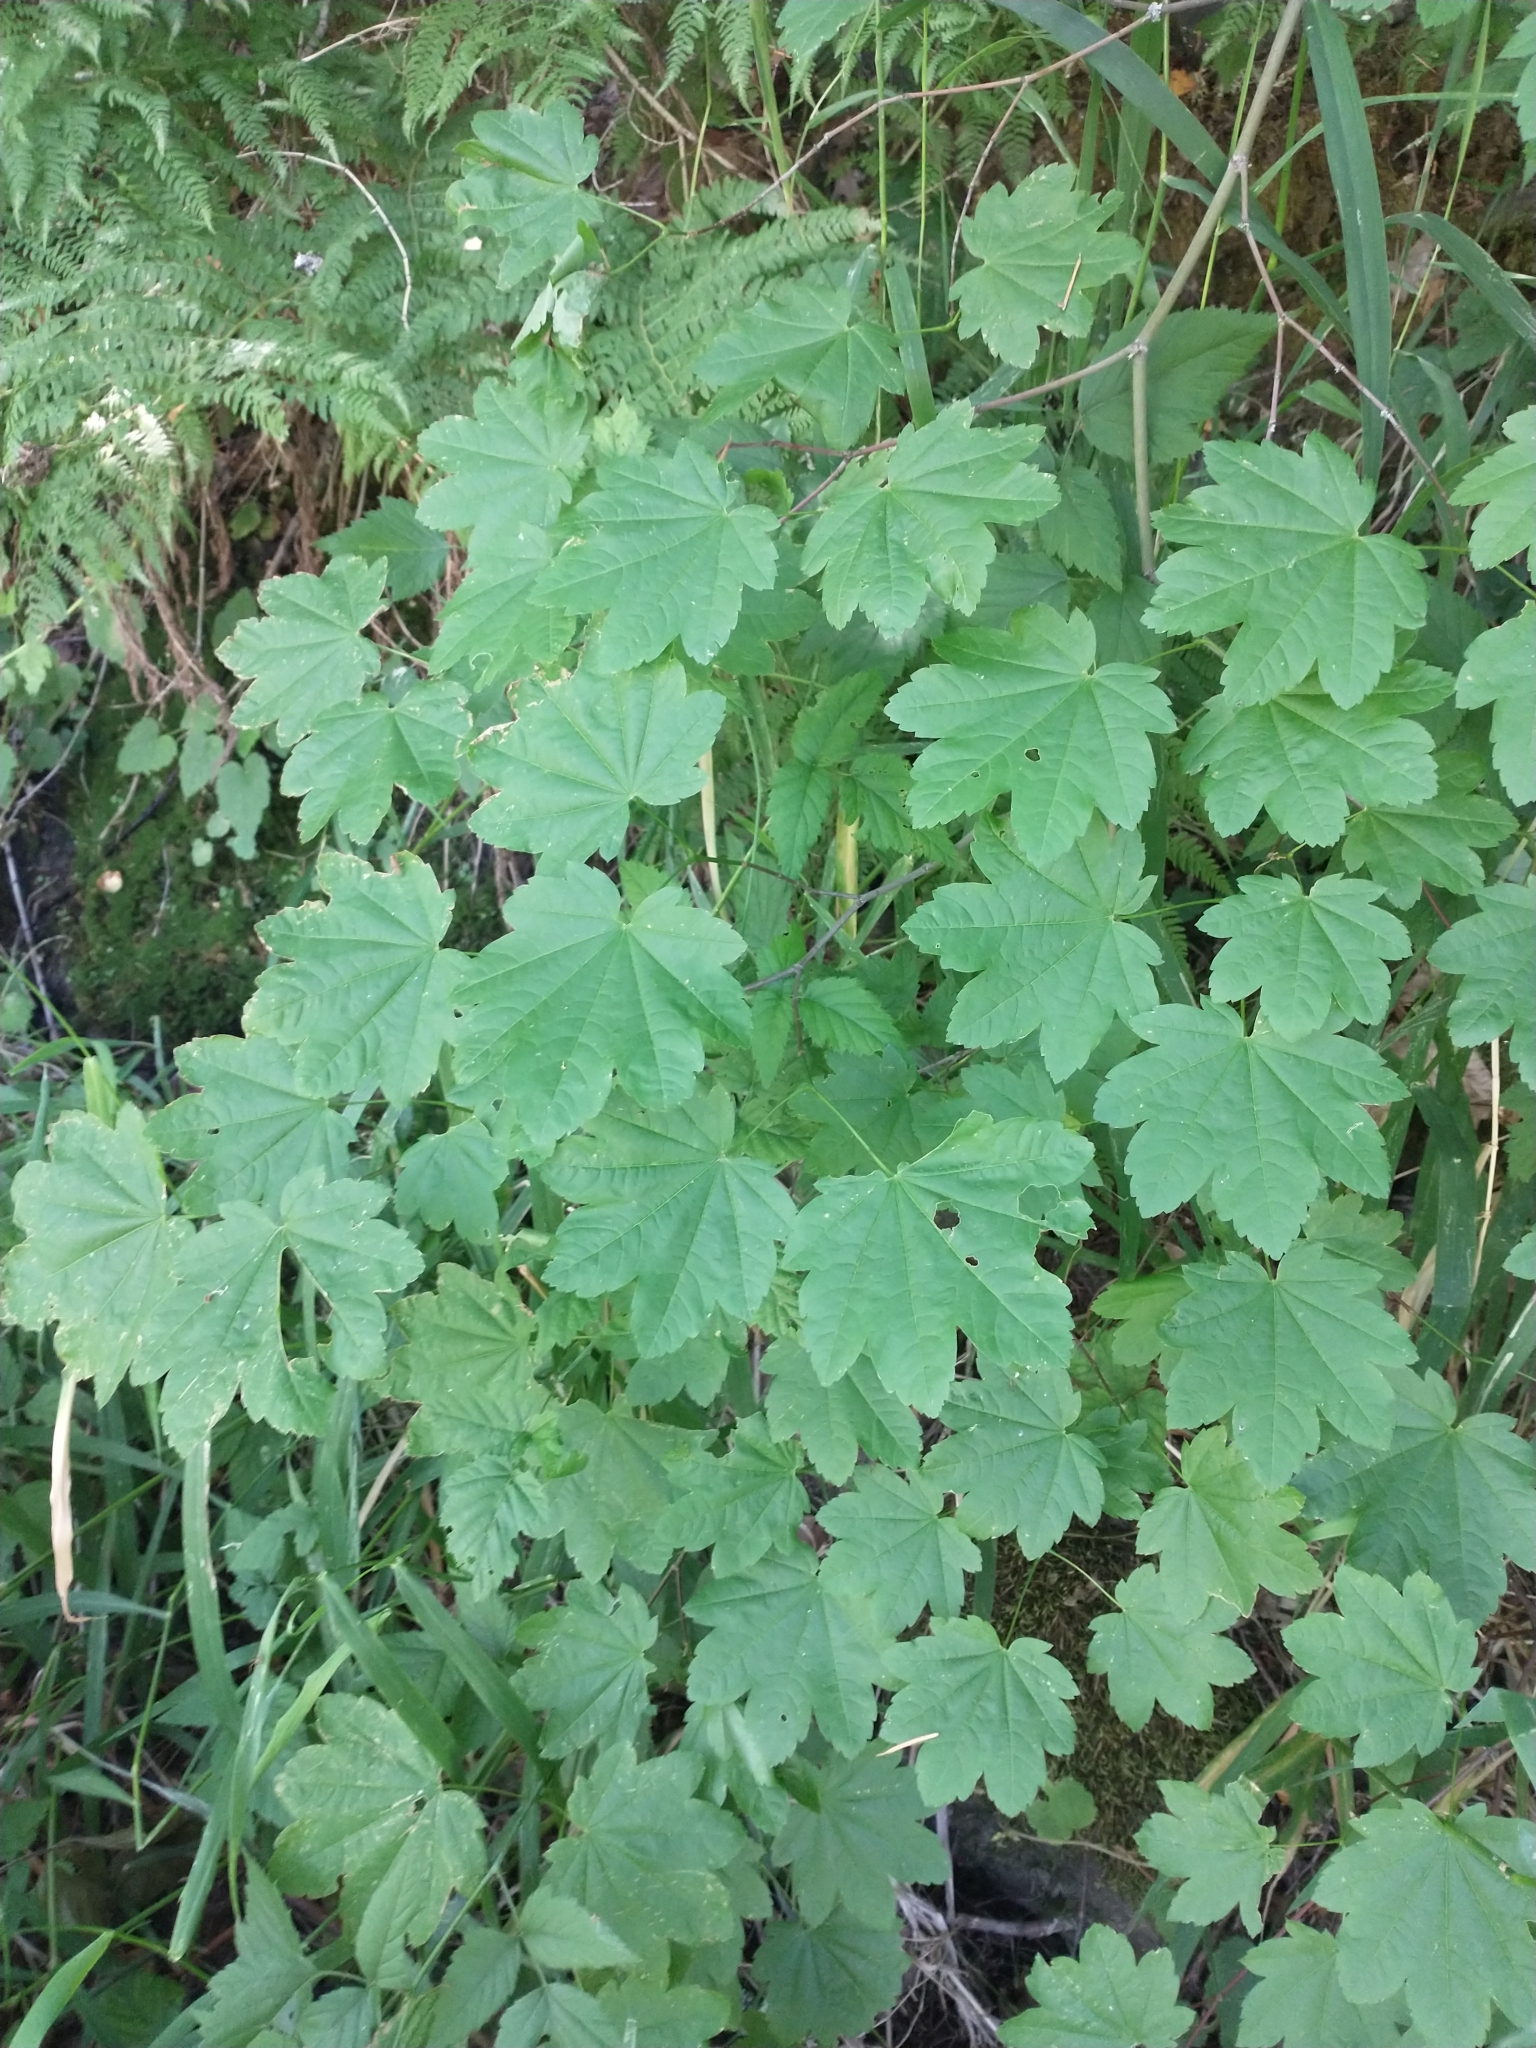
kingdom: Plantae
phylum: Tracheophyta
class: Magnoliopsida
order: Sapindales
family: Sapindaceae
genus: Acer
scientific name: Acer circinatum
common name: Vine maple
